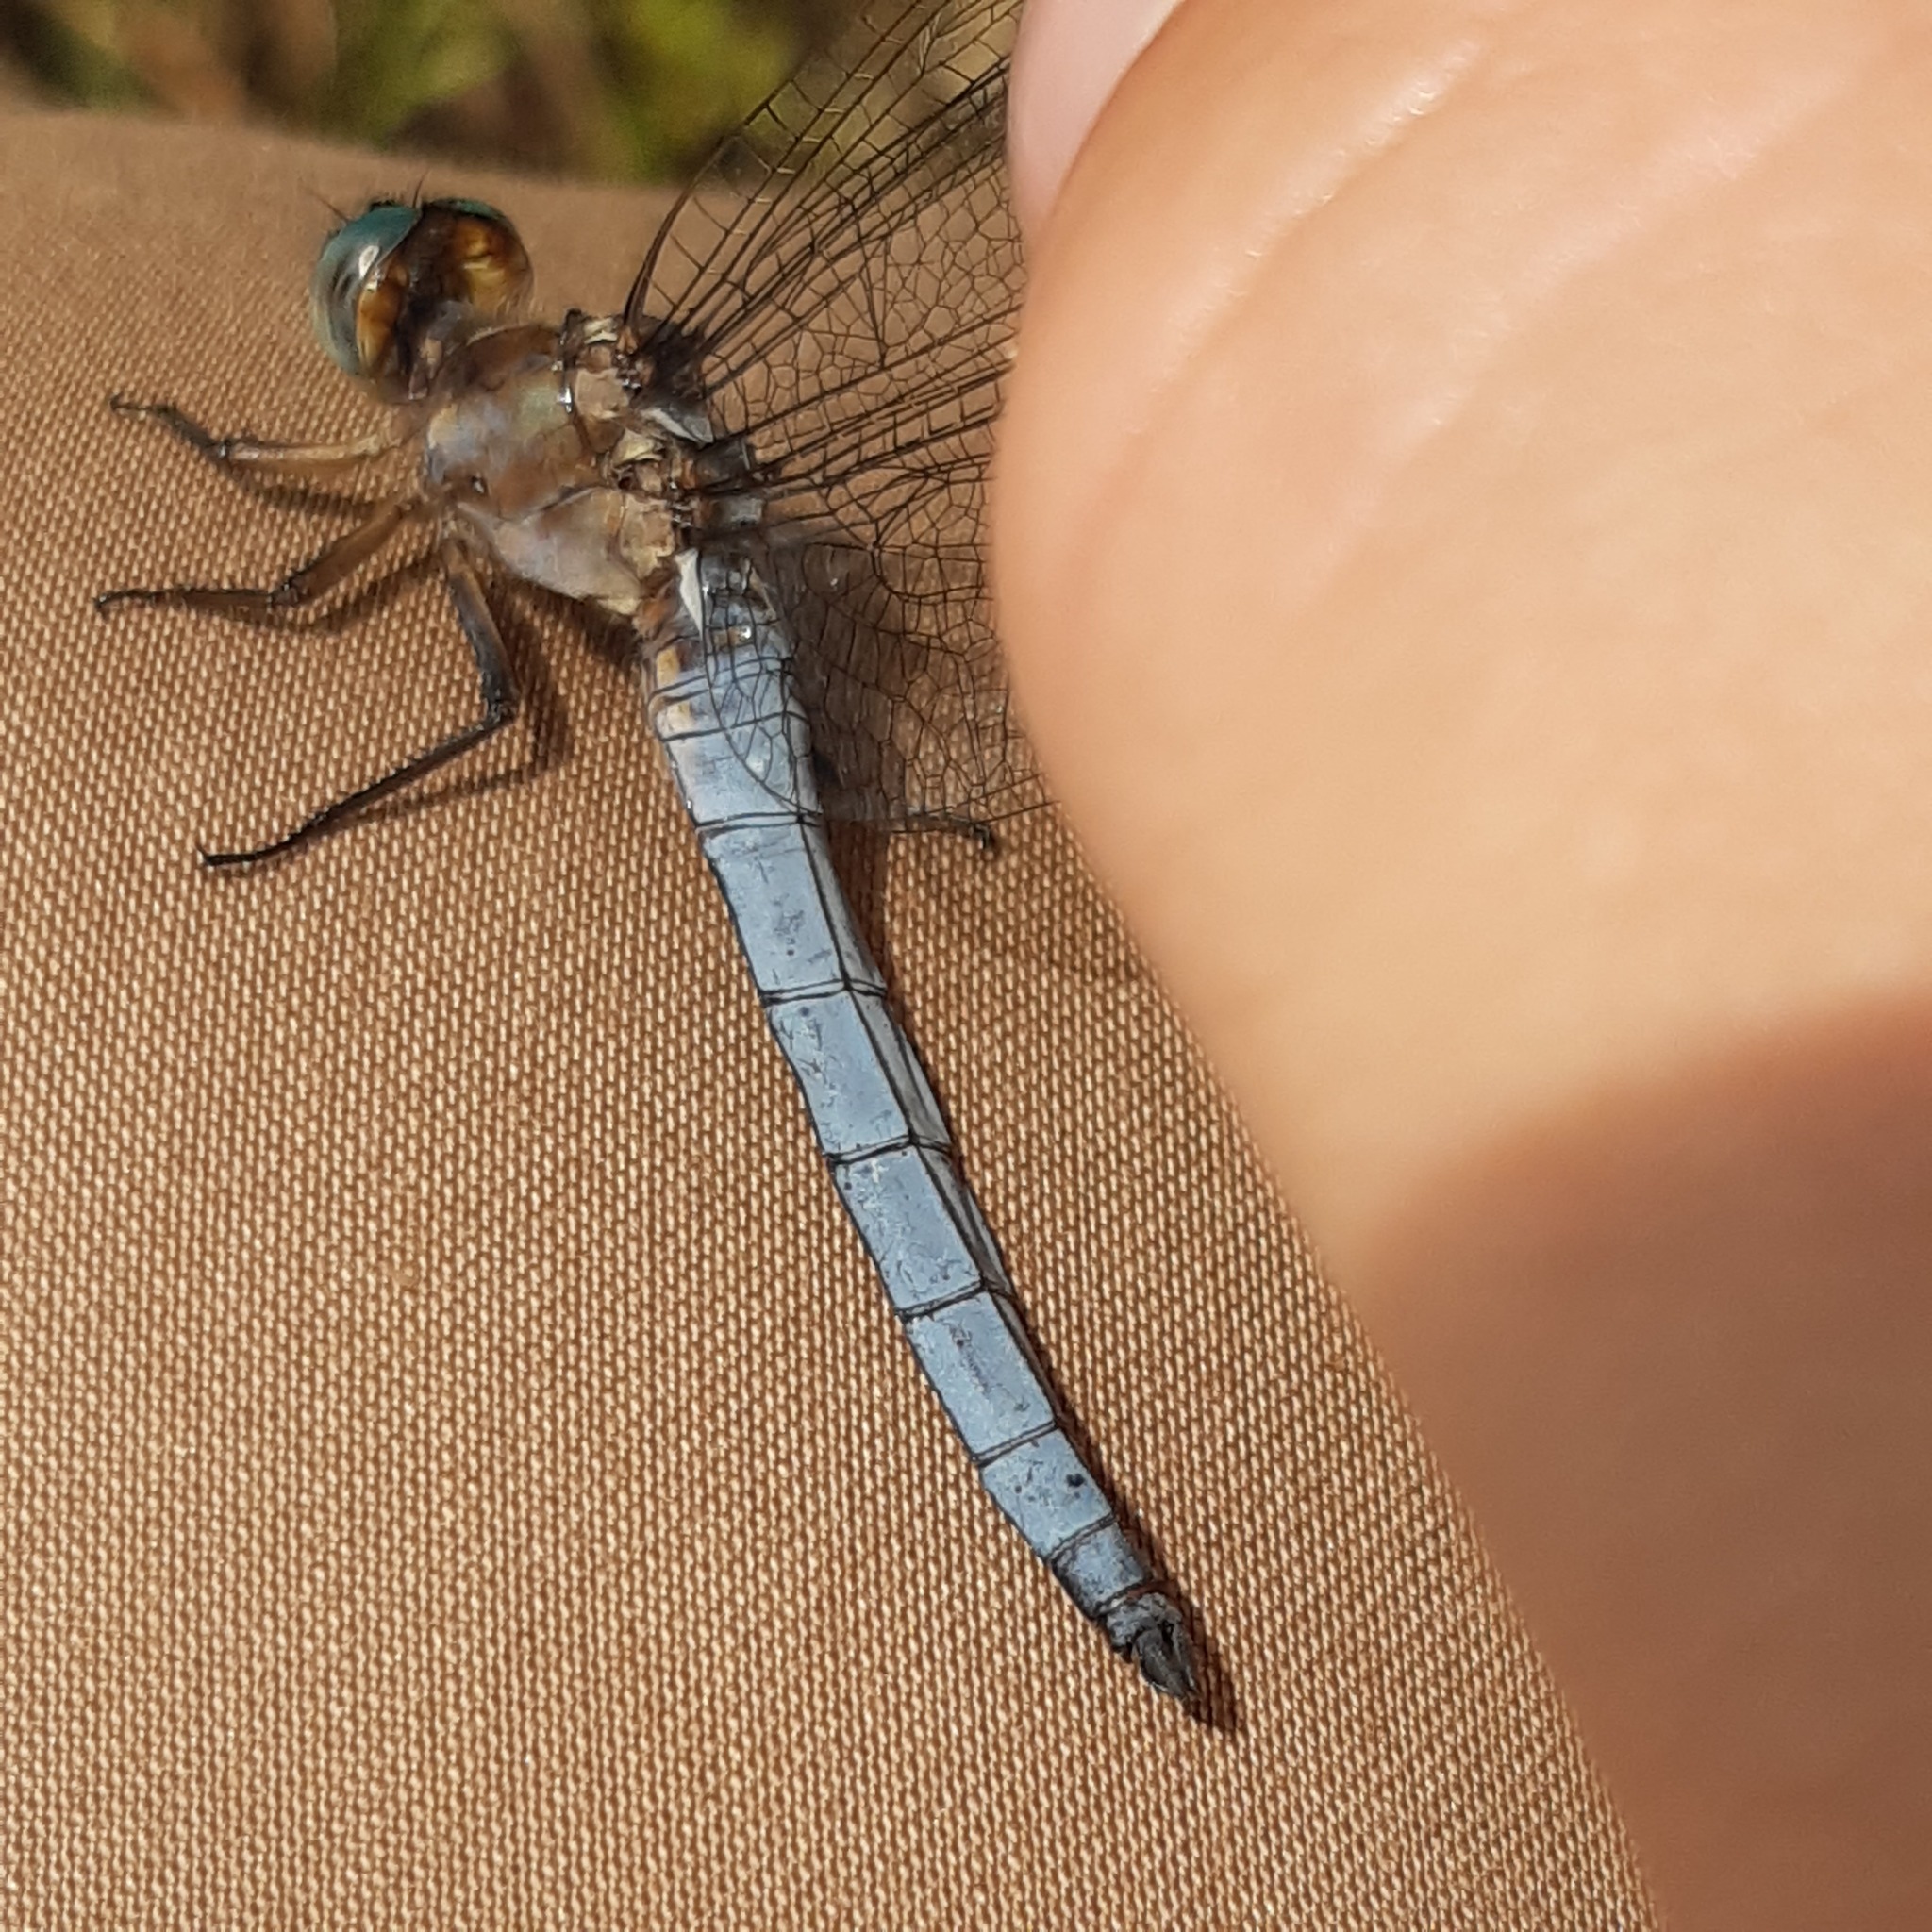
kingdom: Animalia
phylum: Arthropoda
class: Insecta
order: Odonata
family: Libellulidae
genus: Orthetrum
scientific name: Orthetrum coerulescens
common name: Keeled skimmer
